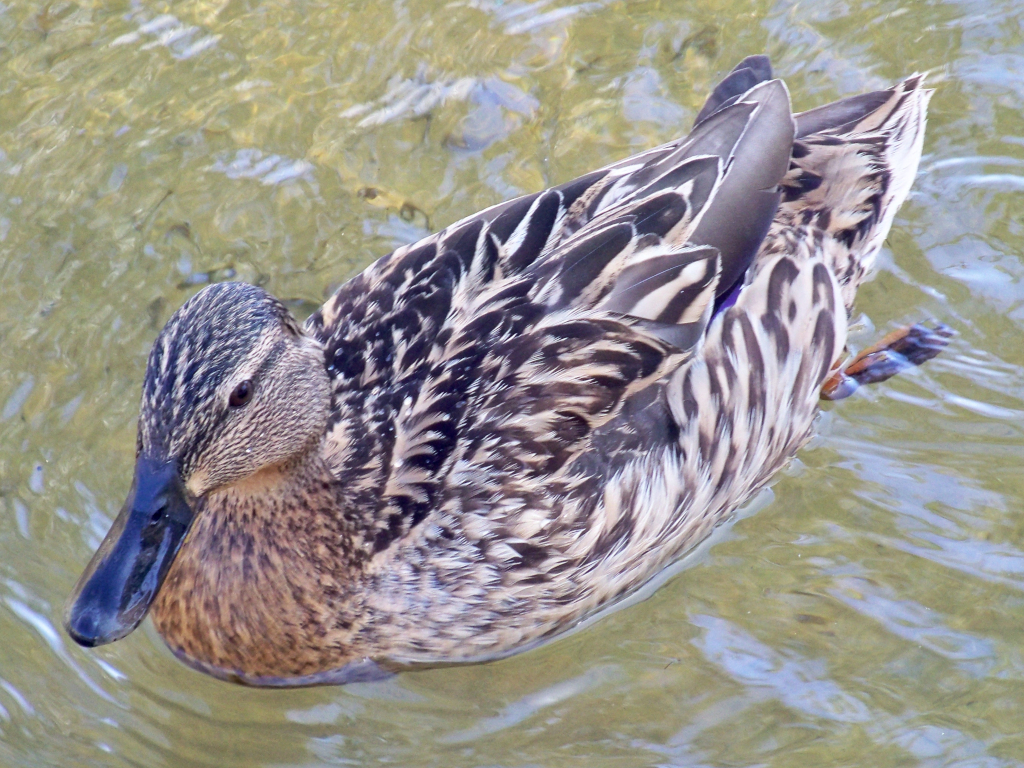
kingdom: Animalia
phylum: Chordata
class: Aves
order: Anseriformes
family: Anatidae
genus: Anas
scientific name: Anas platyrhynchos
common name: Mallard
